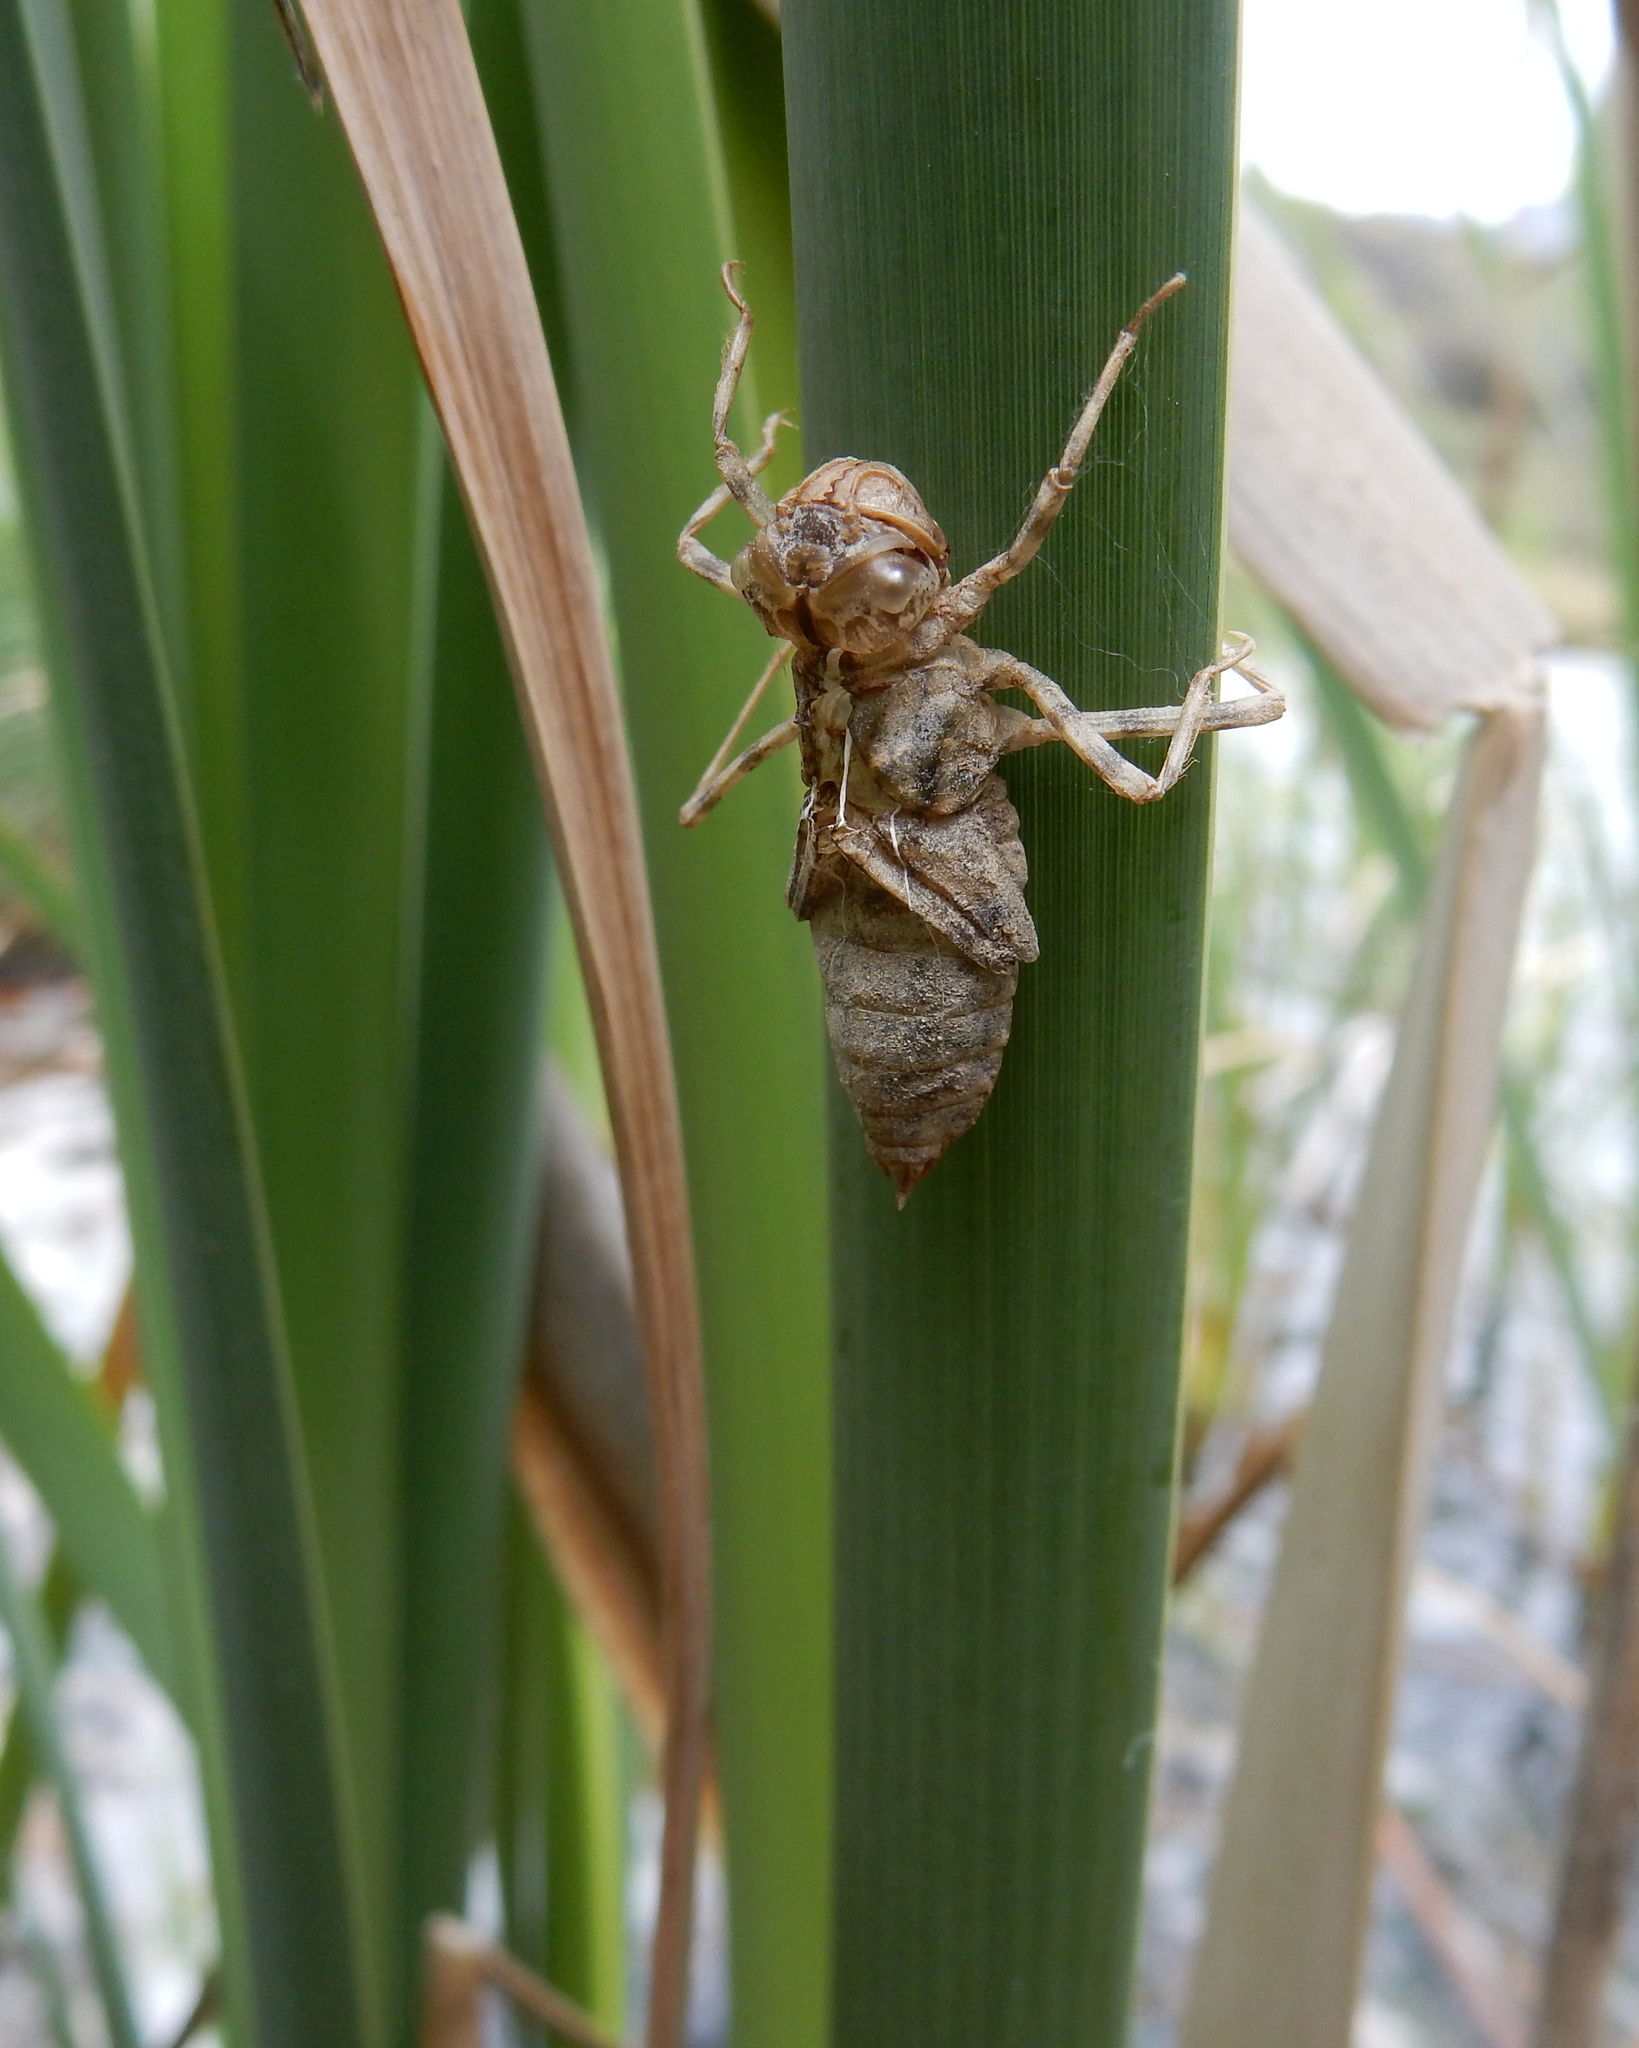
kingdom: Animalia
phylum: Arthropoda
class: Insecta
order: Odonata
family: Corduliidae
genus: Procordulia
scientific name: Procordulia grayi
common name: Yellow spotted dragonfly
